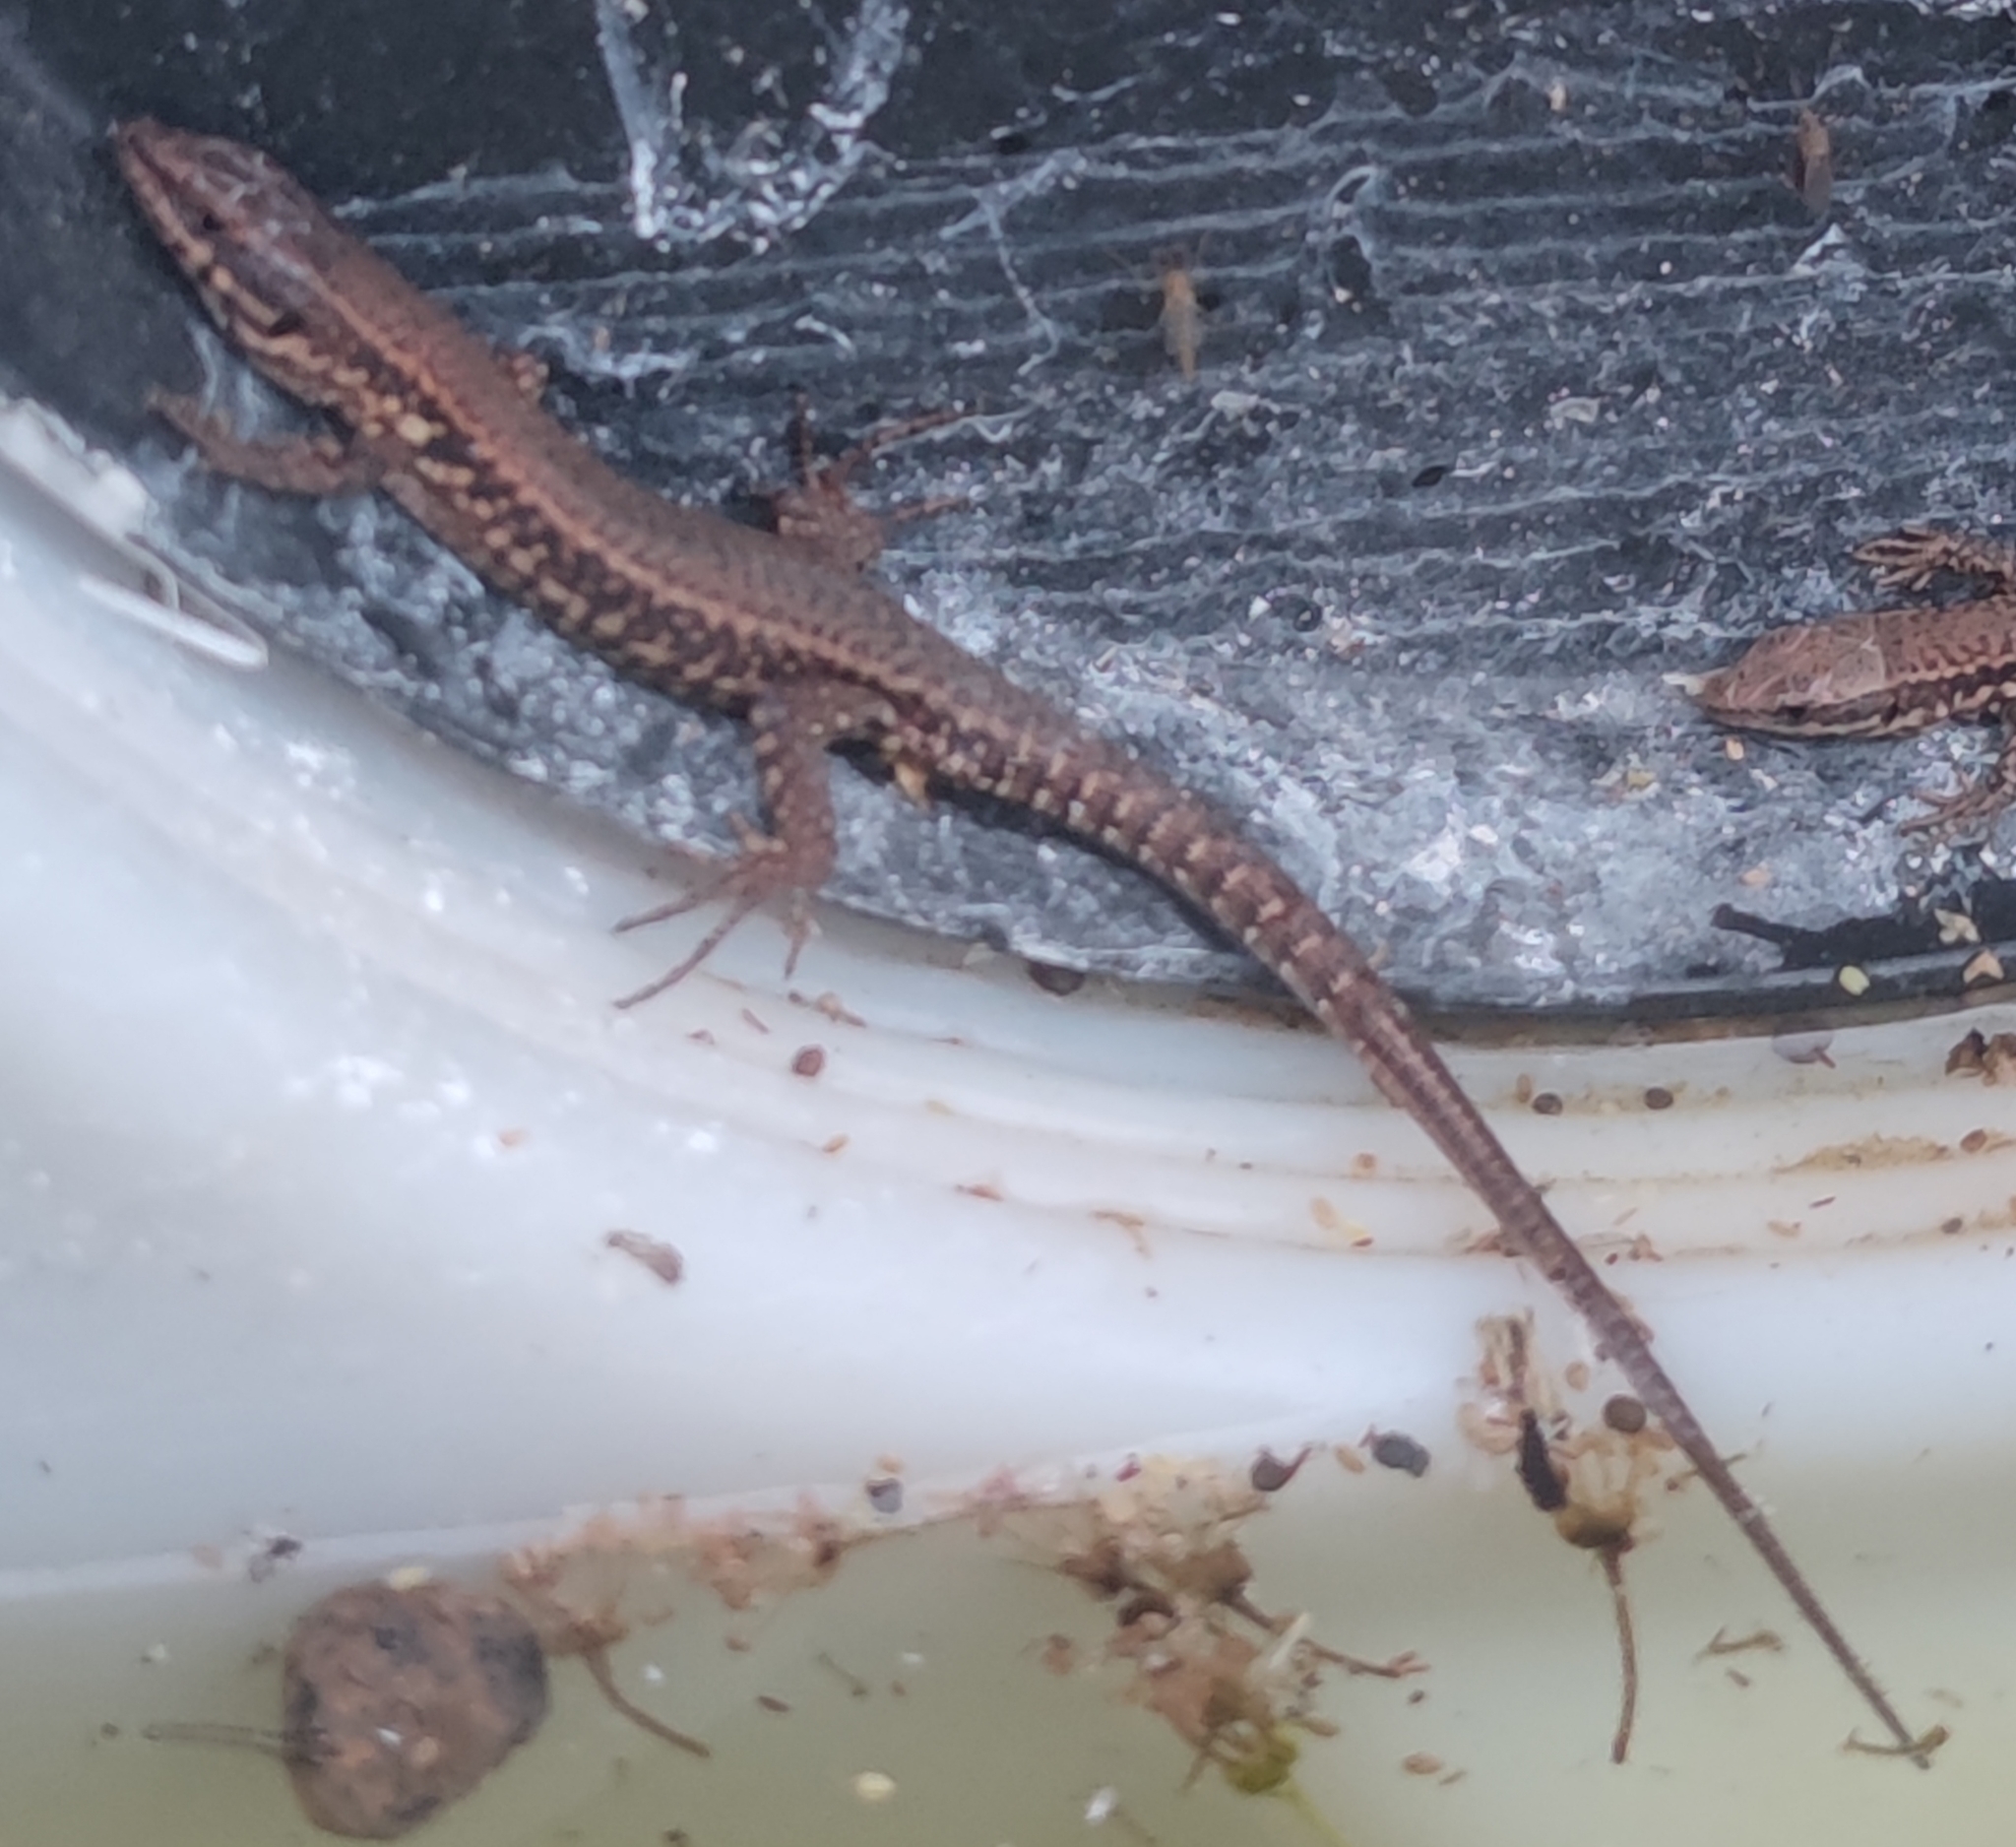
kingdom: Animalia
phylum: Chordata
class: Squamata
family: Lacertidae
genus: Podarcis
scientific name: Podarcis muralis
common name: Common wall lizard
